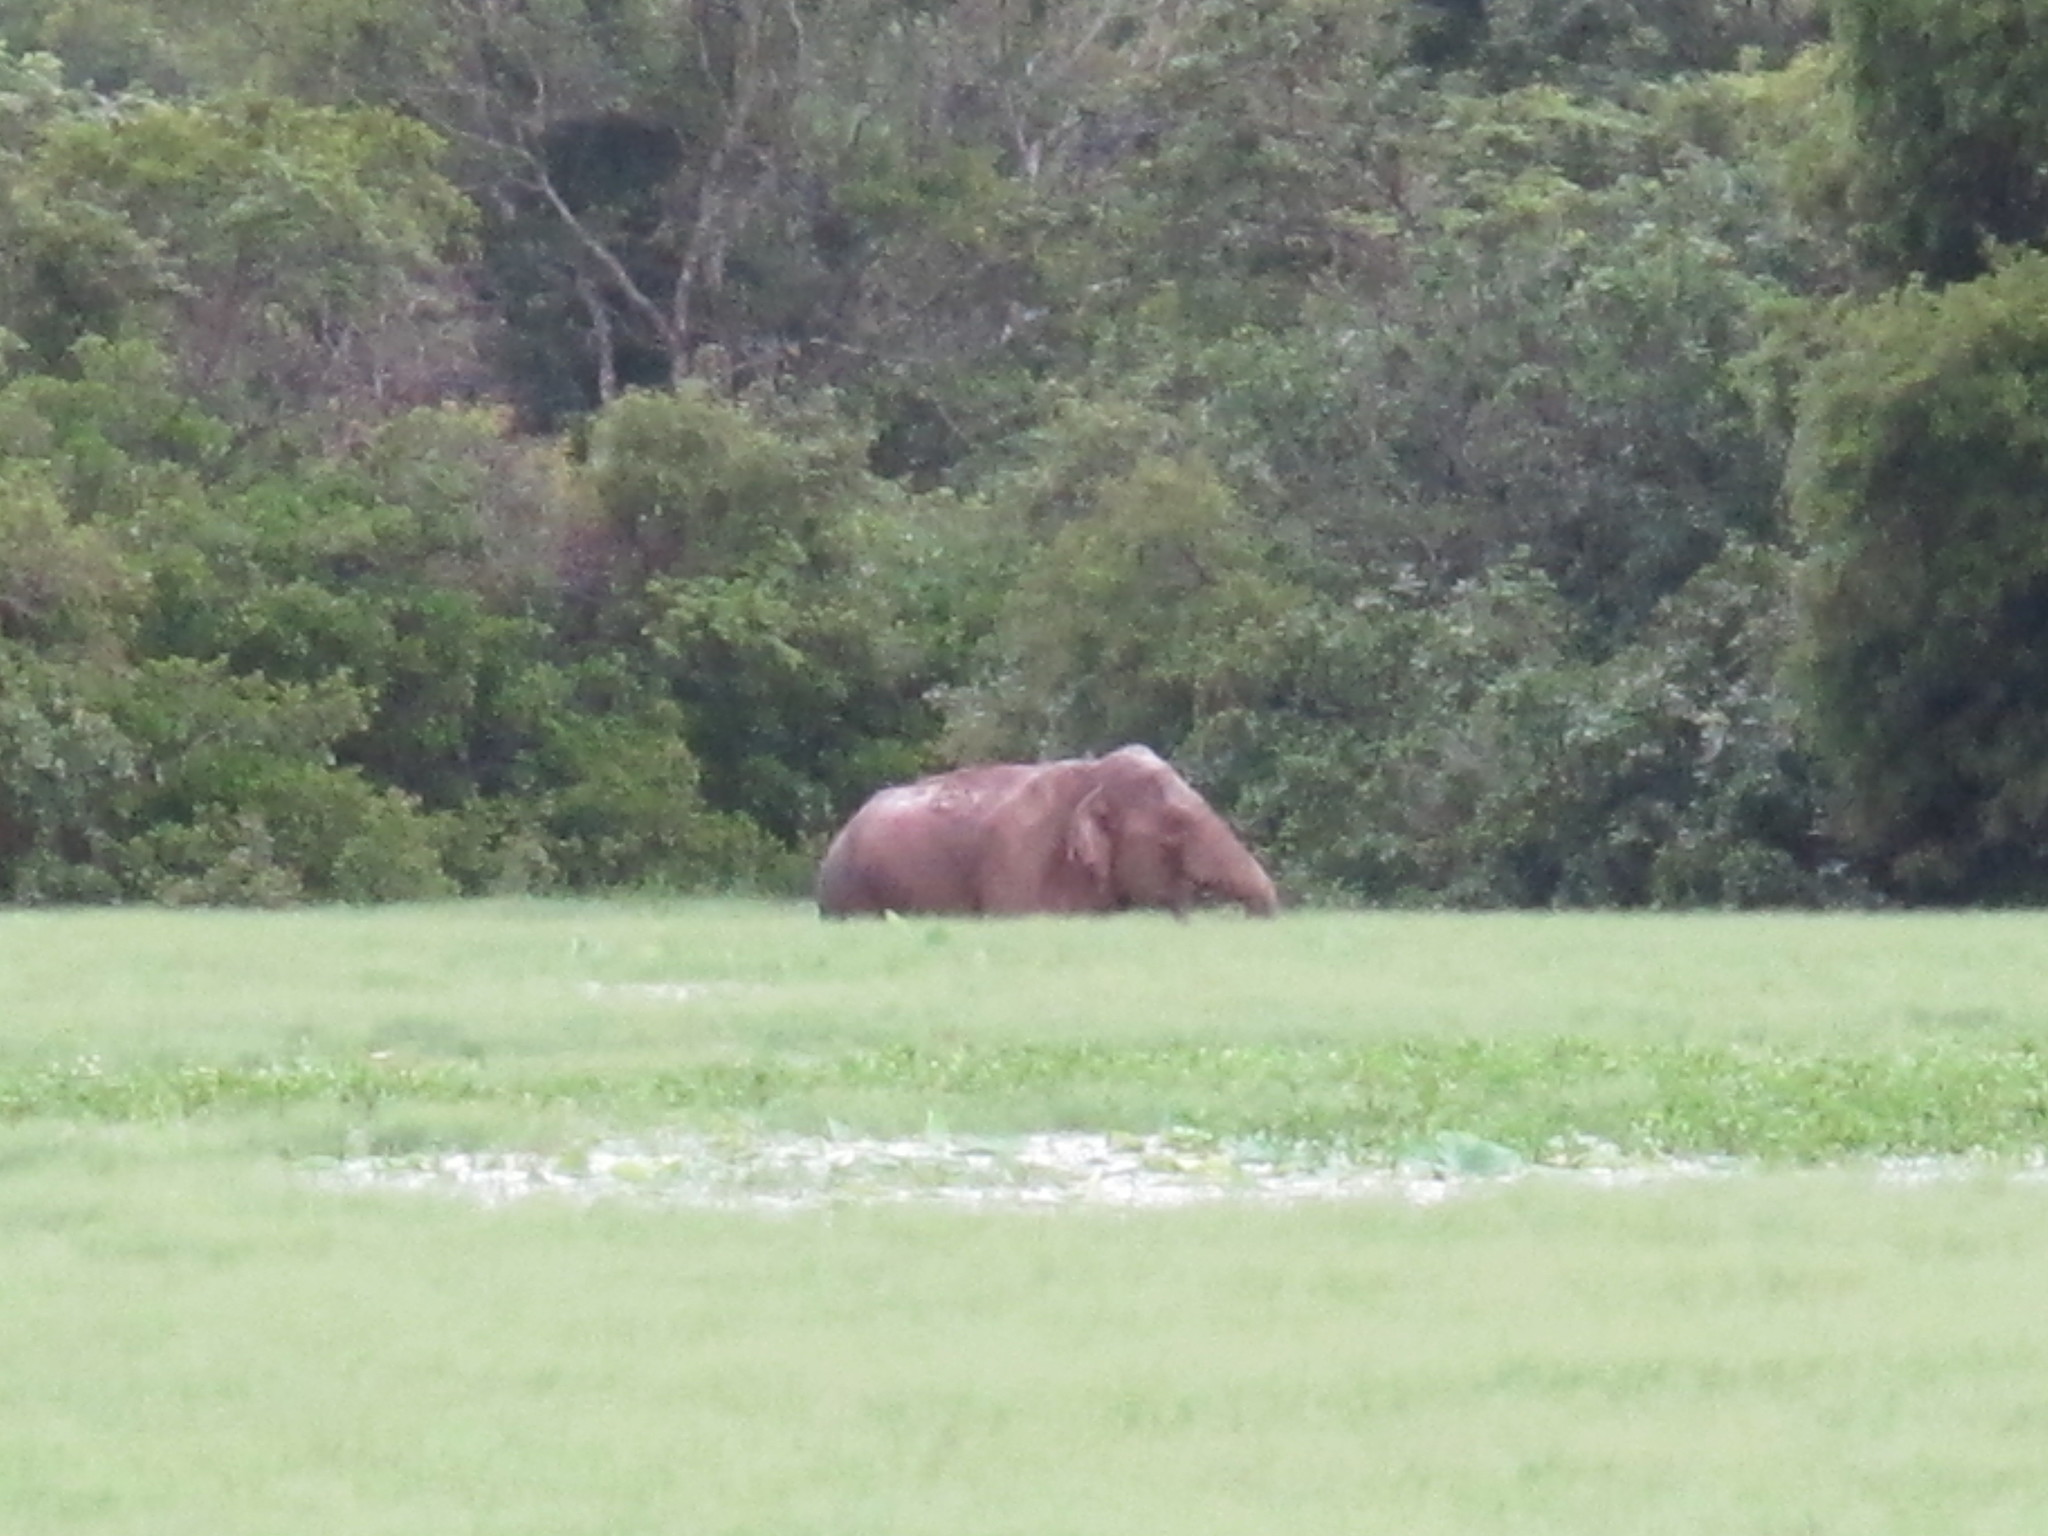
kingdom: Animalia
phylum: Chordata
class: Mammalia
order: Proboscidea
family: Elephantidae
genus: Elephas
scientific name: Elephas maximus
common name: Asian elephant
